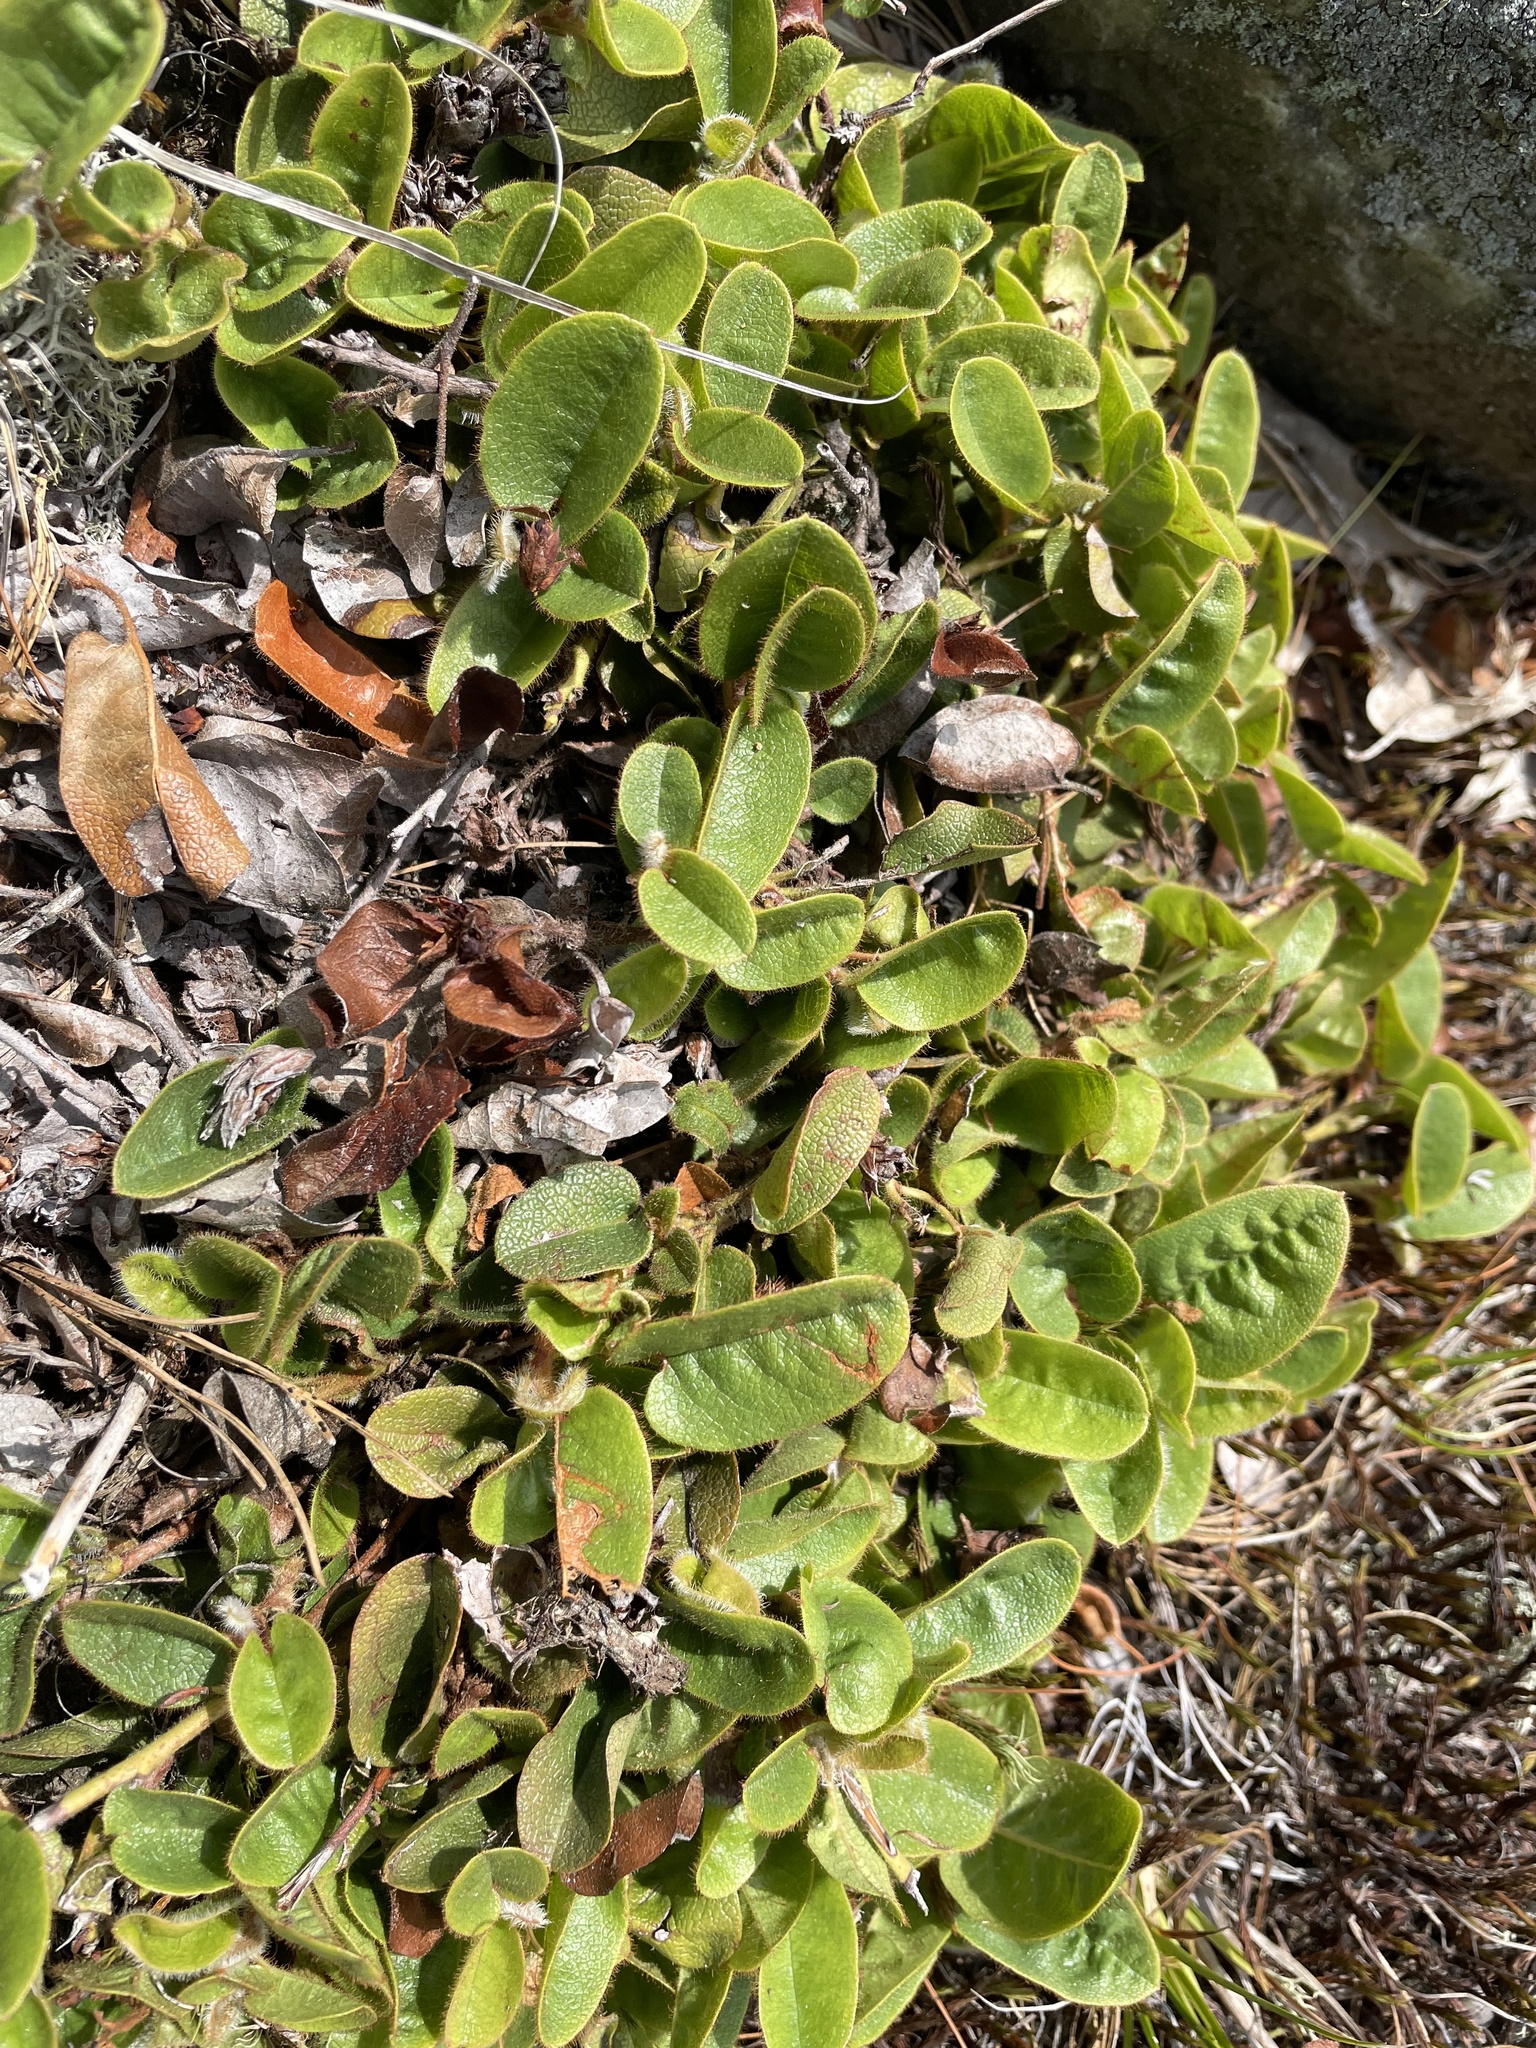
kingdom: Plantae
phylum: Tracheophyta
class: Magnoliopsida
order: Ericales
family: Ericaceae
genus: Epigaea
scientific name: Epigaea repens
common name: Gravelroot
